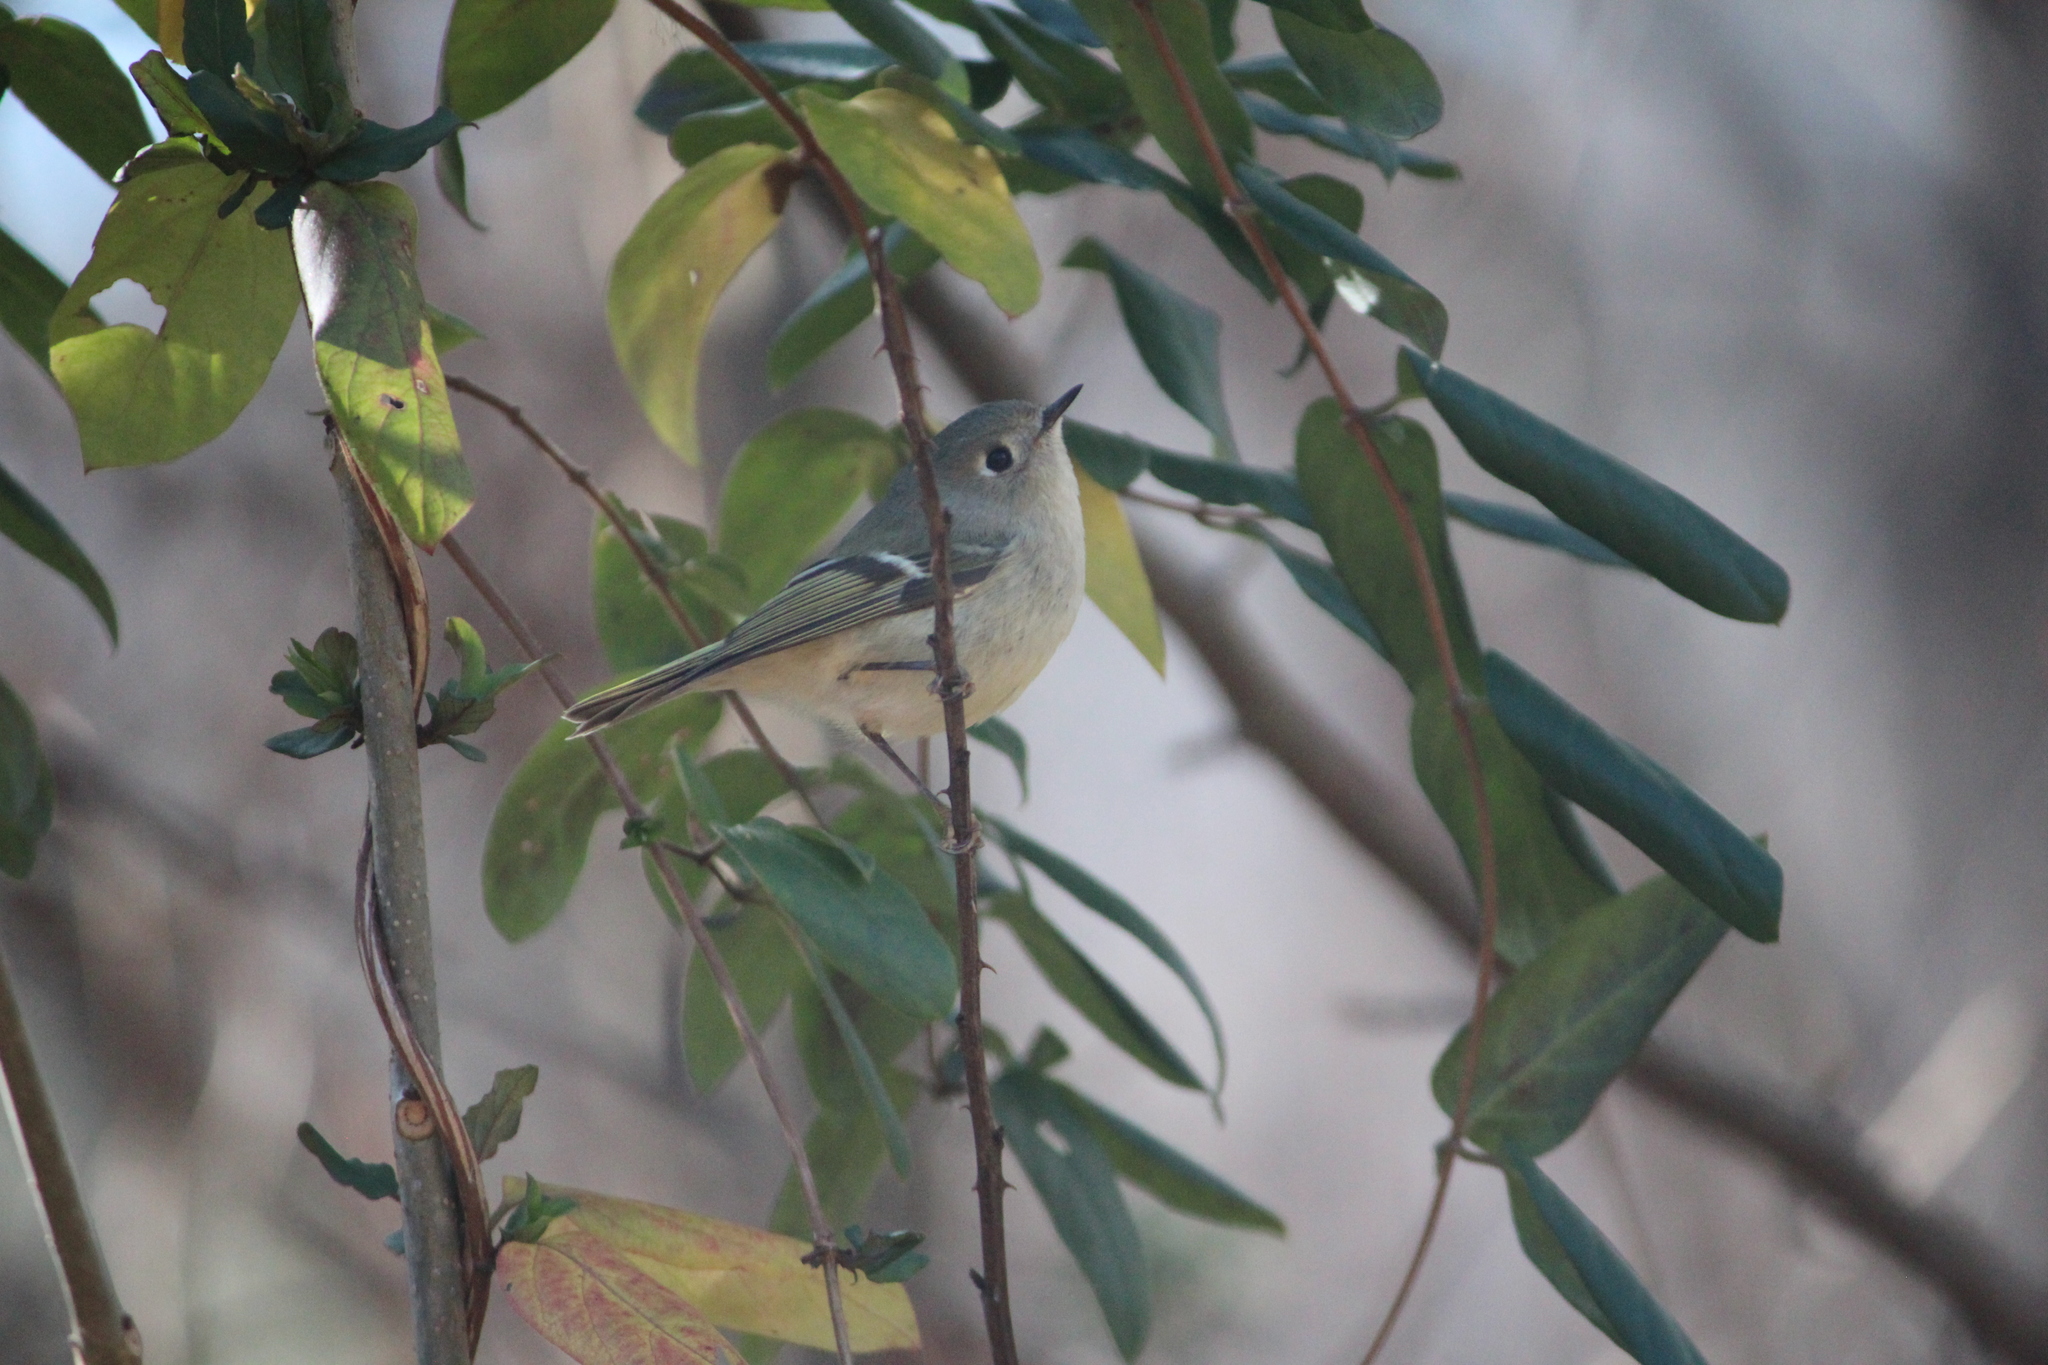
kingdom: Animalia
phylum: Chordata
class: Aves
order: Passeriformes
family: Regulidae
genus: Regulus
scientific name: Regulus calendula
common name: Ruby-crowned kinglet
